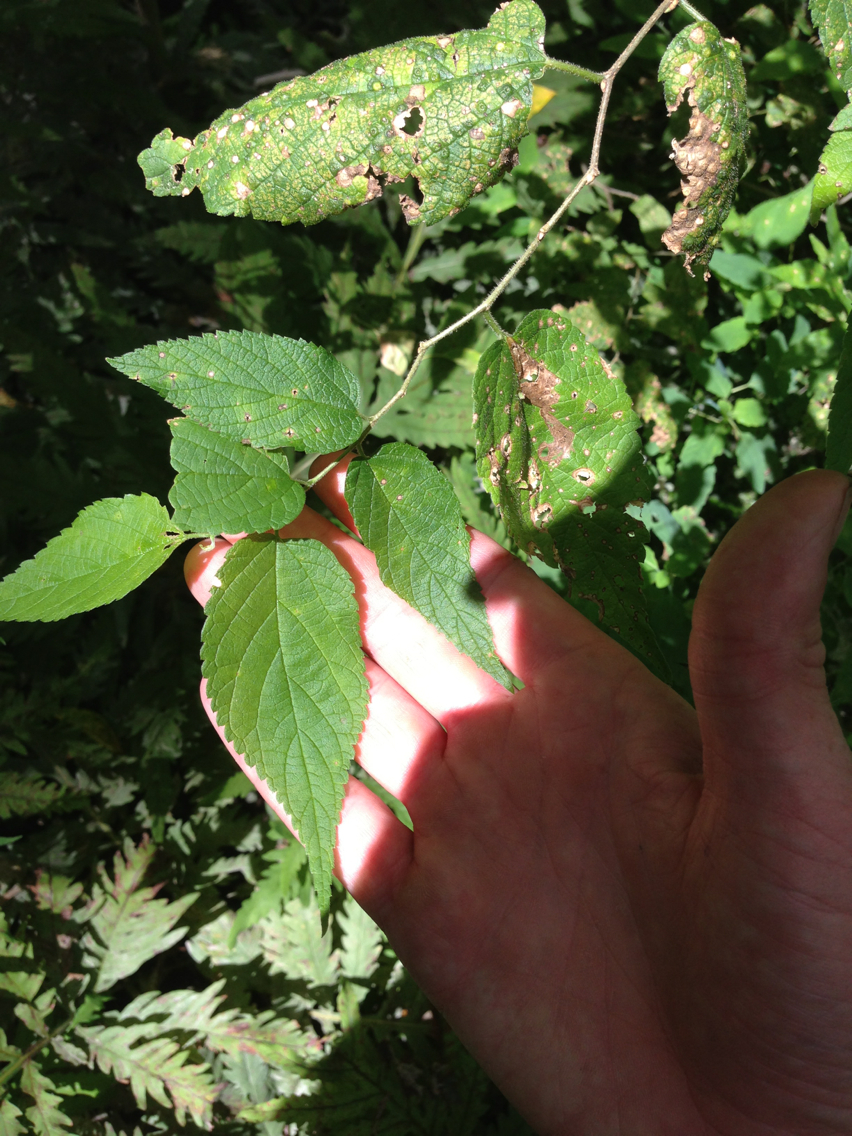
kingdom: Plantae
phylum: Tracheophyta
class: Magnoliopsida
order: Rosales
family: Cannabaceae
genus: Celtis
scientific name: Celtis occidentalis
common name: Common hackberry
